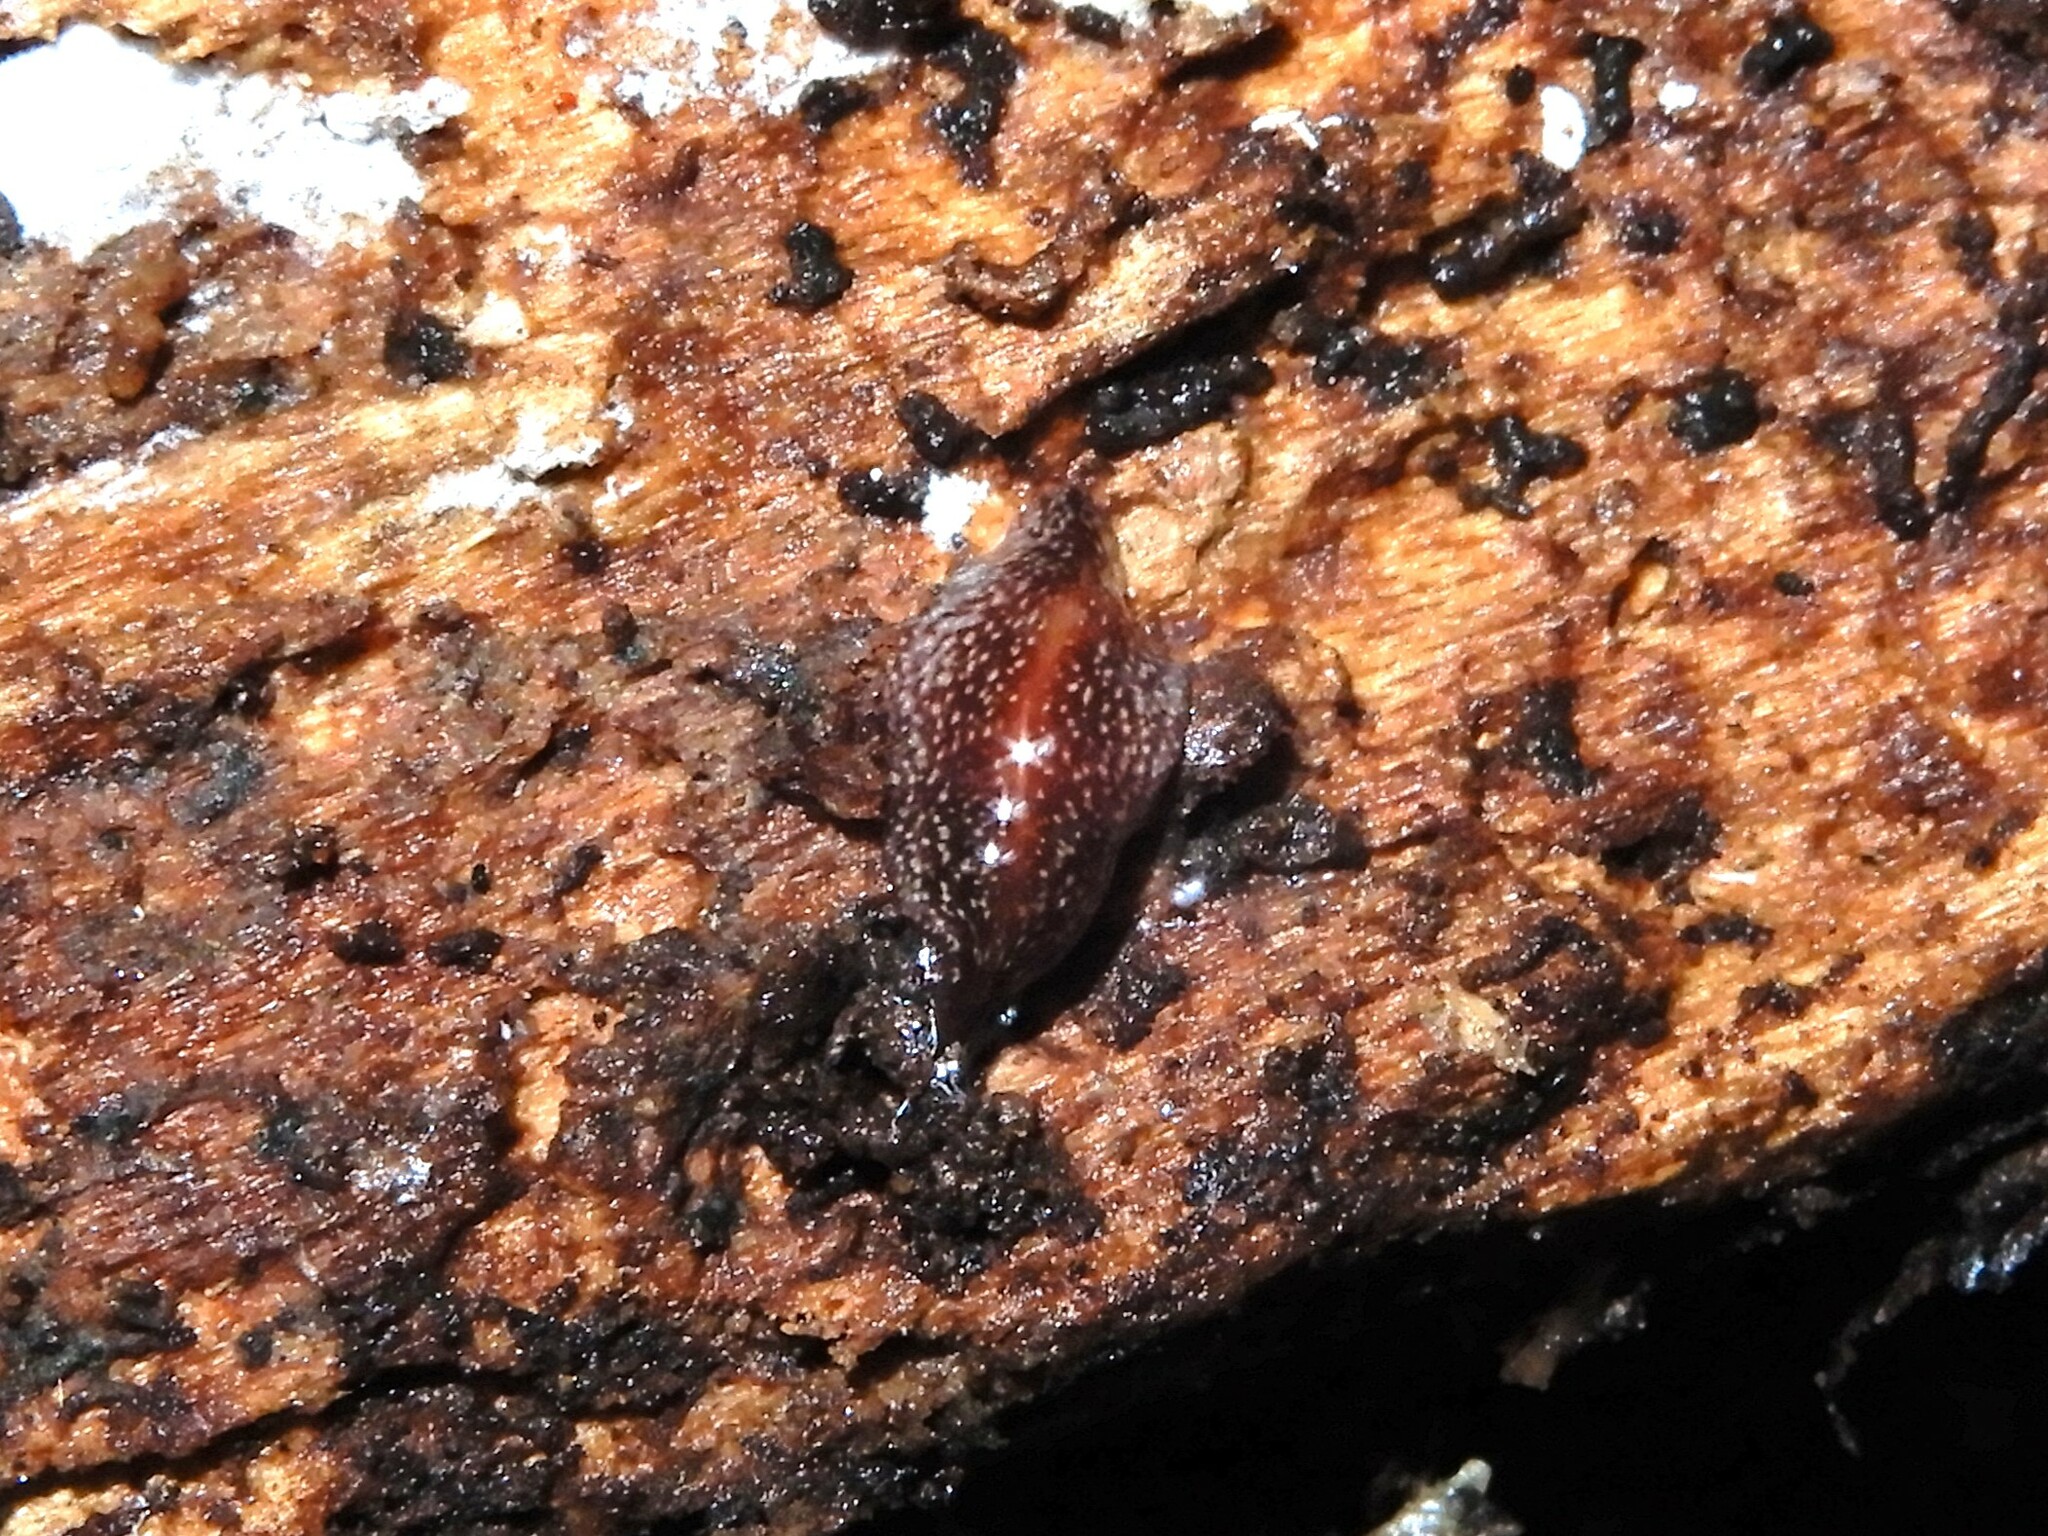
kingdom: Animalia
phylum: Platyhelminthes
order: Tricladida
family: Geoplanidae
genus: Australopacifica
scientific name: Australopacifica spectabilis
